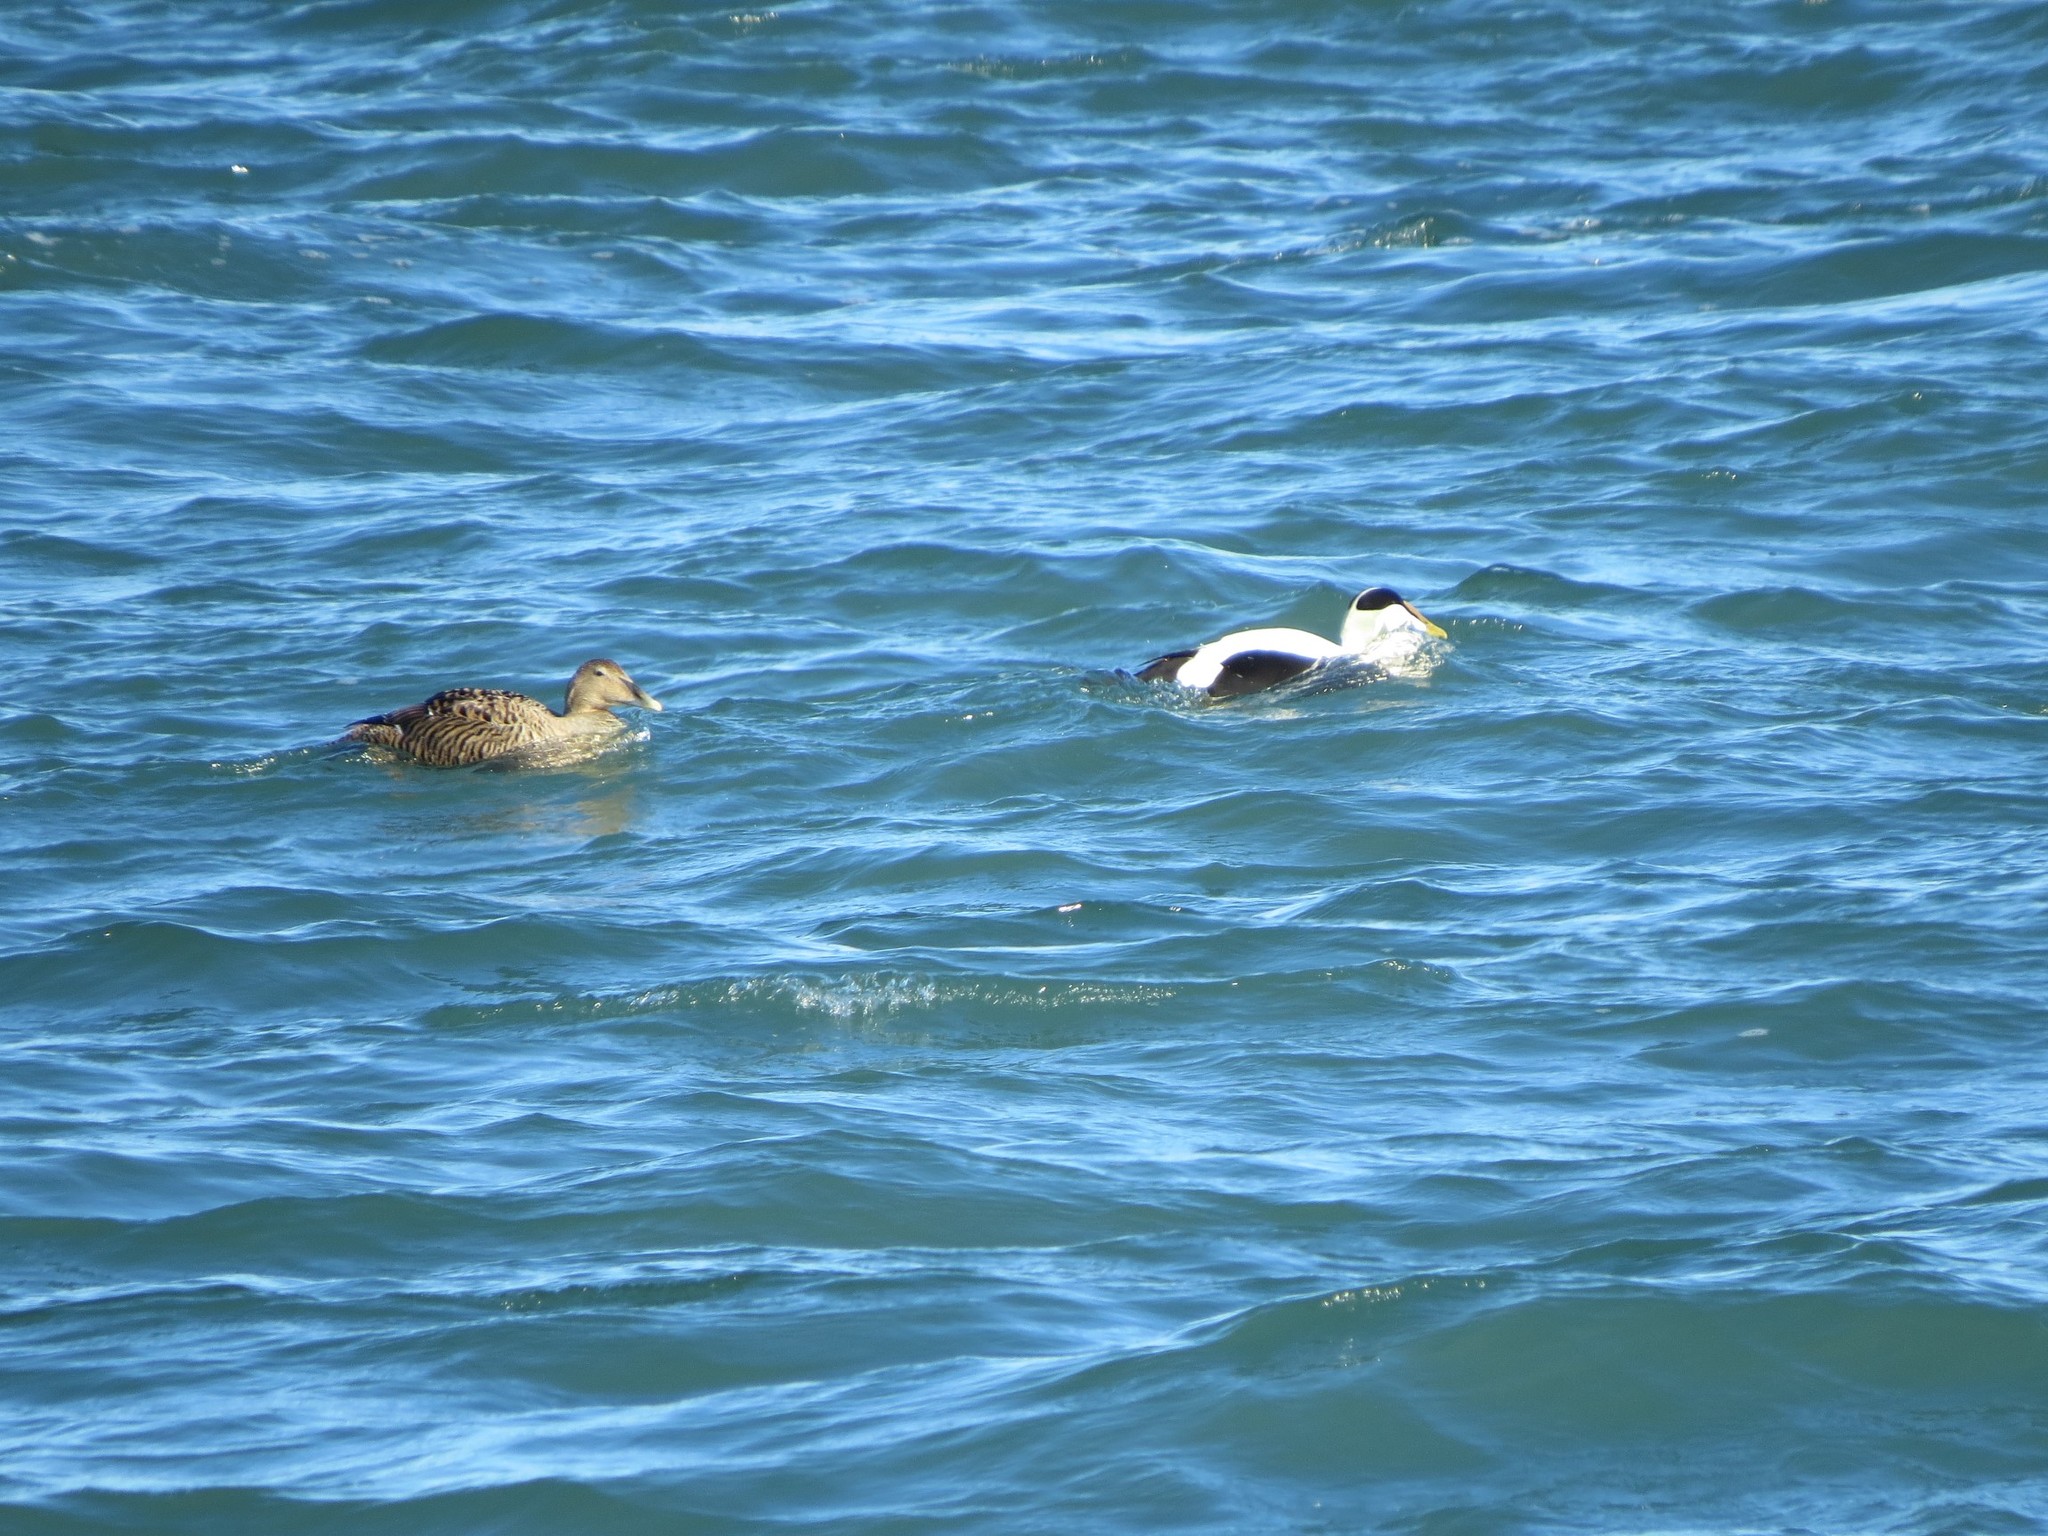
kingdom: Animalia
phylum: Chordata
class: Aves
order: Anseriformes
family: Anatidae
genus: Somateria
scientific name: Somateria mollissima
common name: Common eider
